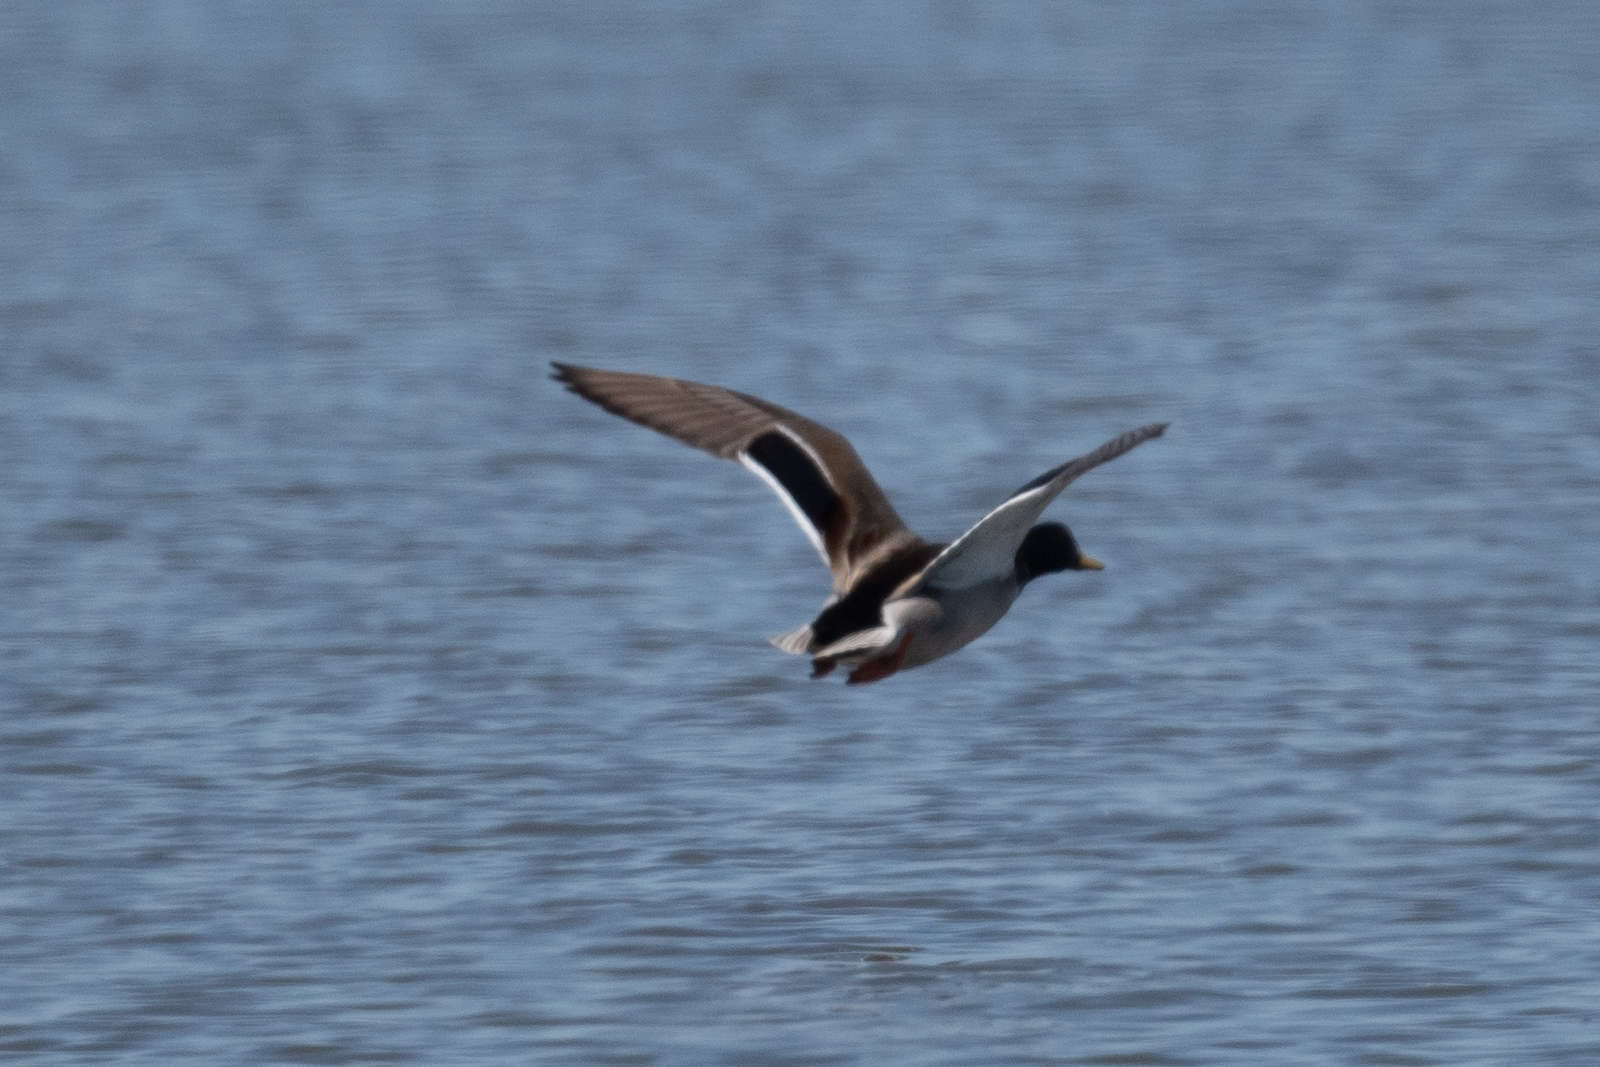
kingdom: Animalia
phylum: Chordata
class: Aves
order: Anseriformes
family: Anatidae
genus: Anas
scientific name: Anas platyrhynchos
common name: Mallard
